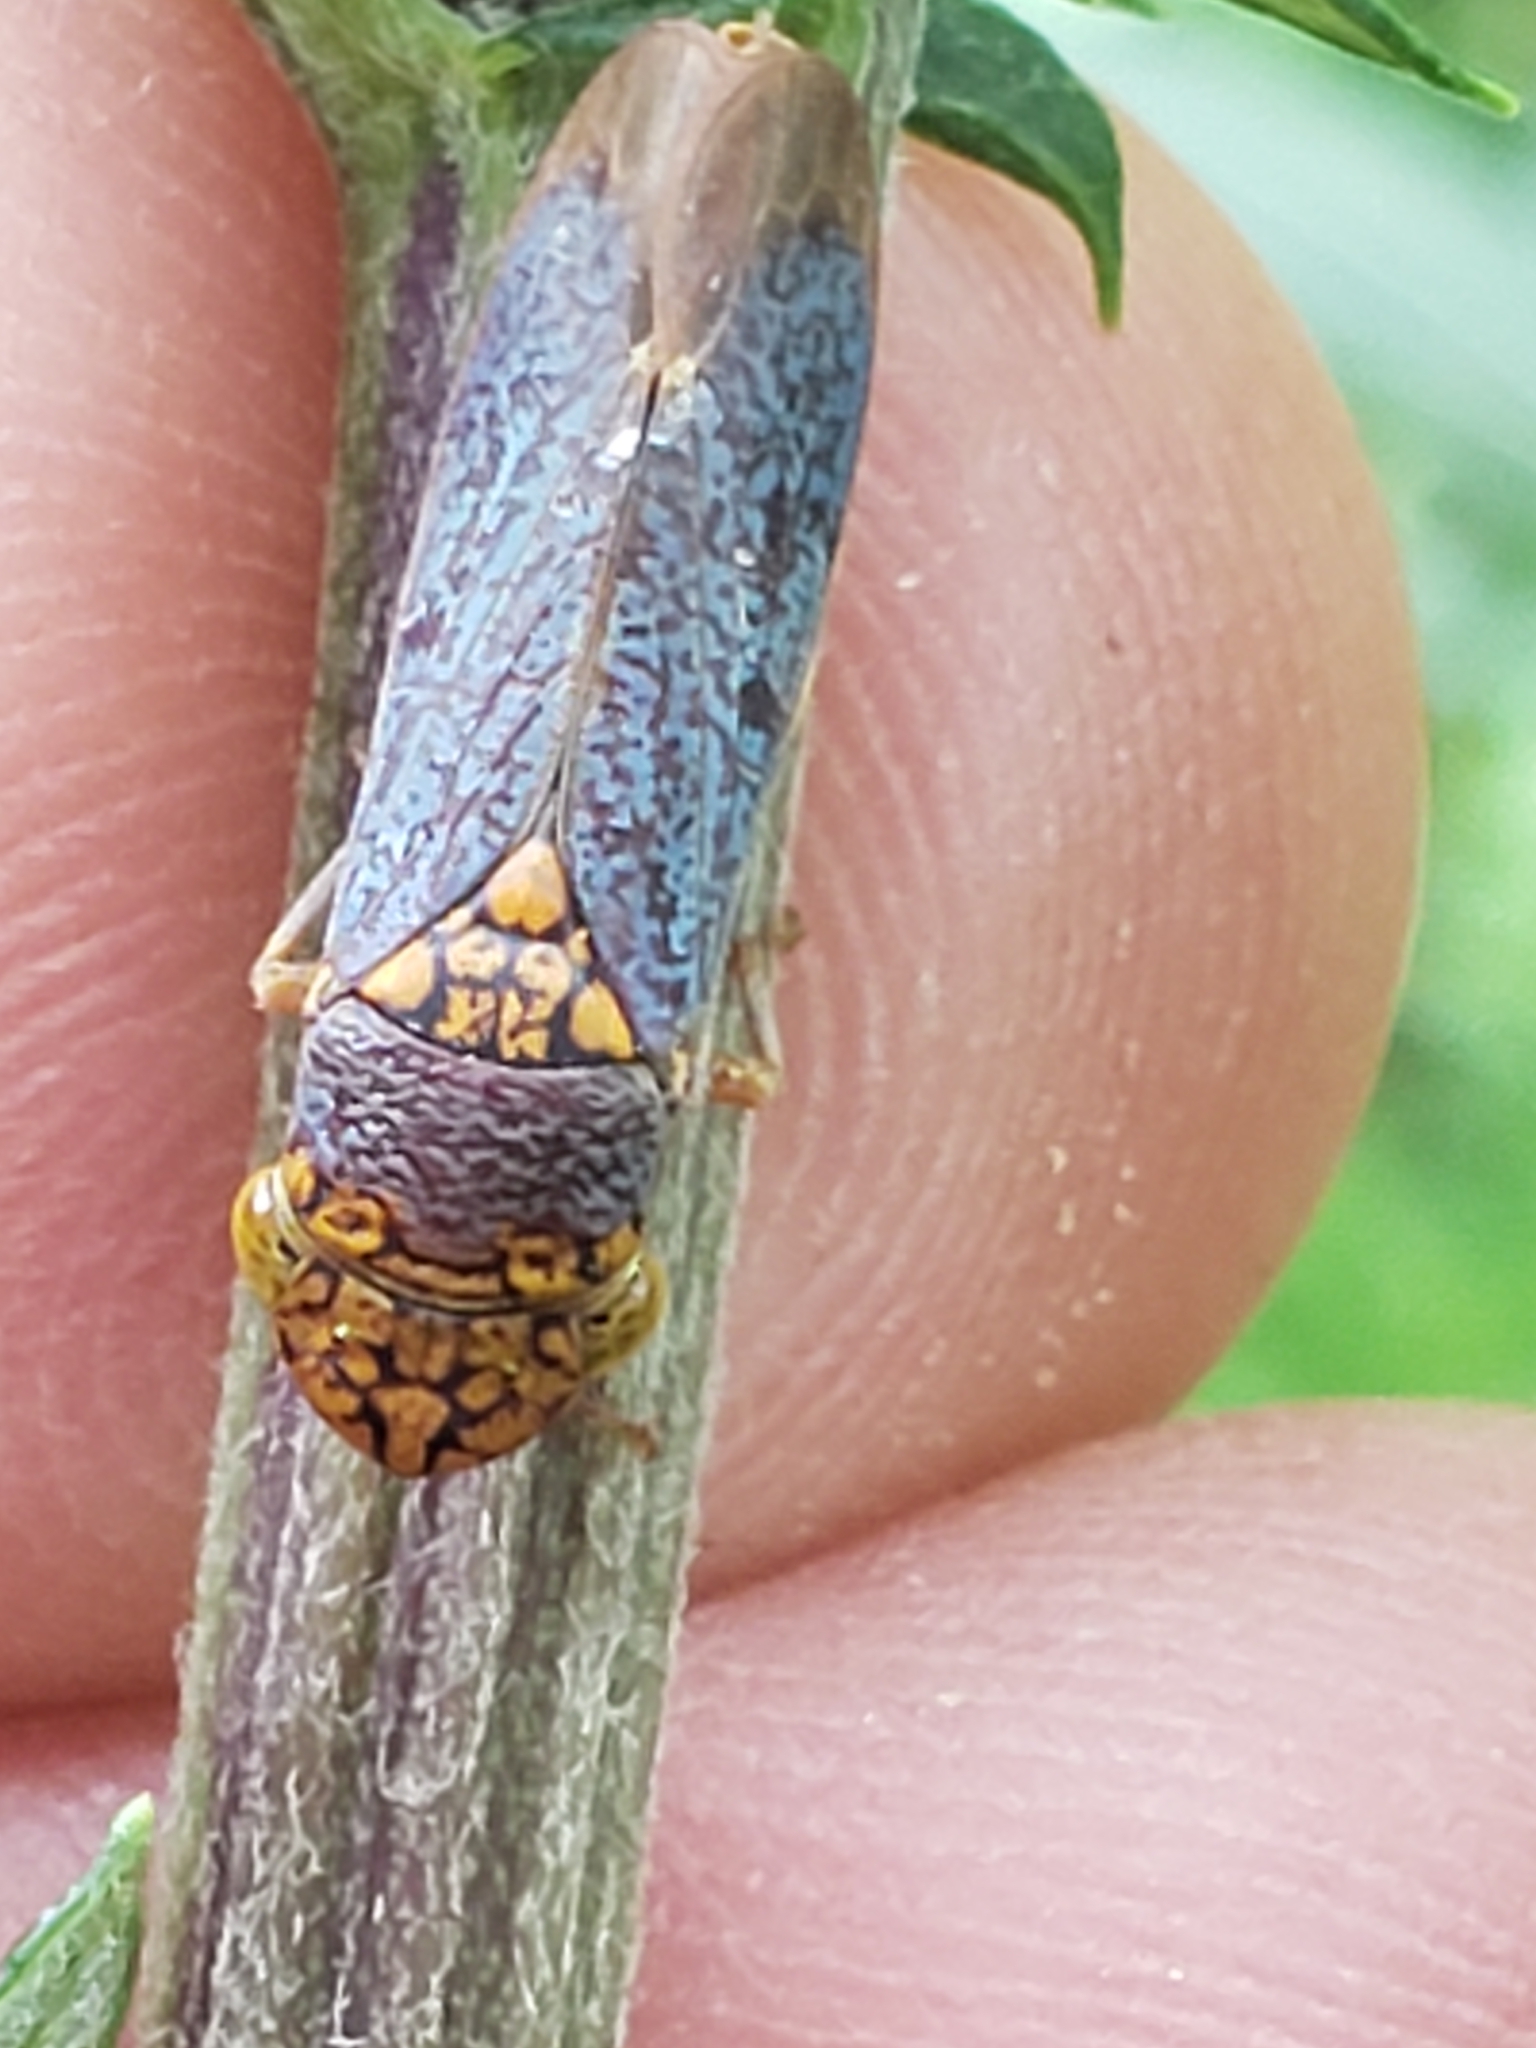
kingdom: Animalia
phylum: Arthropoda
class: Insecta
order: Hemiptera
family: Cicadellidae
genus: Oncometopia
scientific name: Oncometopia orbona
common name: Broad-headed sharpshooter
